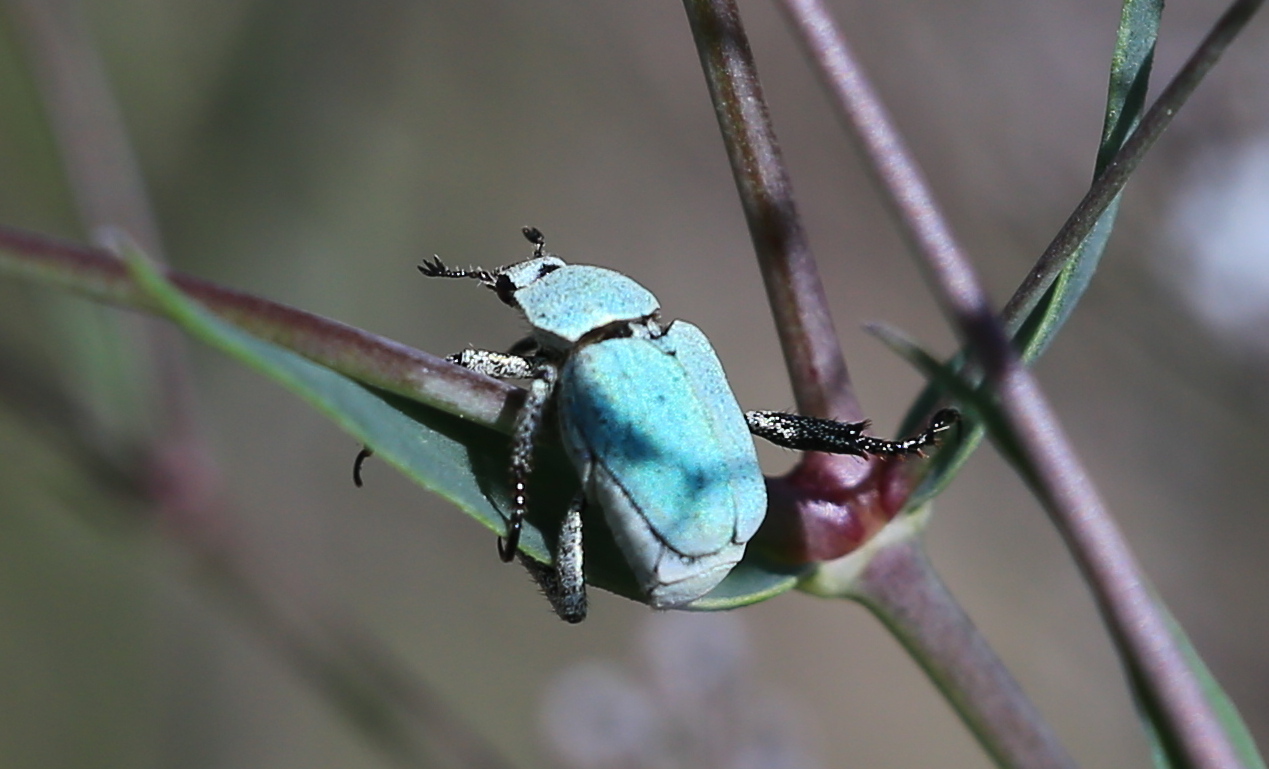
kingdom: Animalia
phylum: Arthropoda
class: Insecta
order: Coleoptera
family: Scarabaeidae
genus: Hoplia
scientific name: Hoplia parvula
